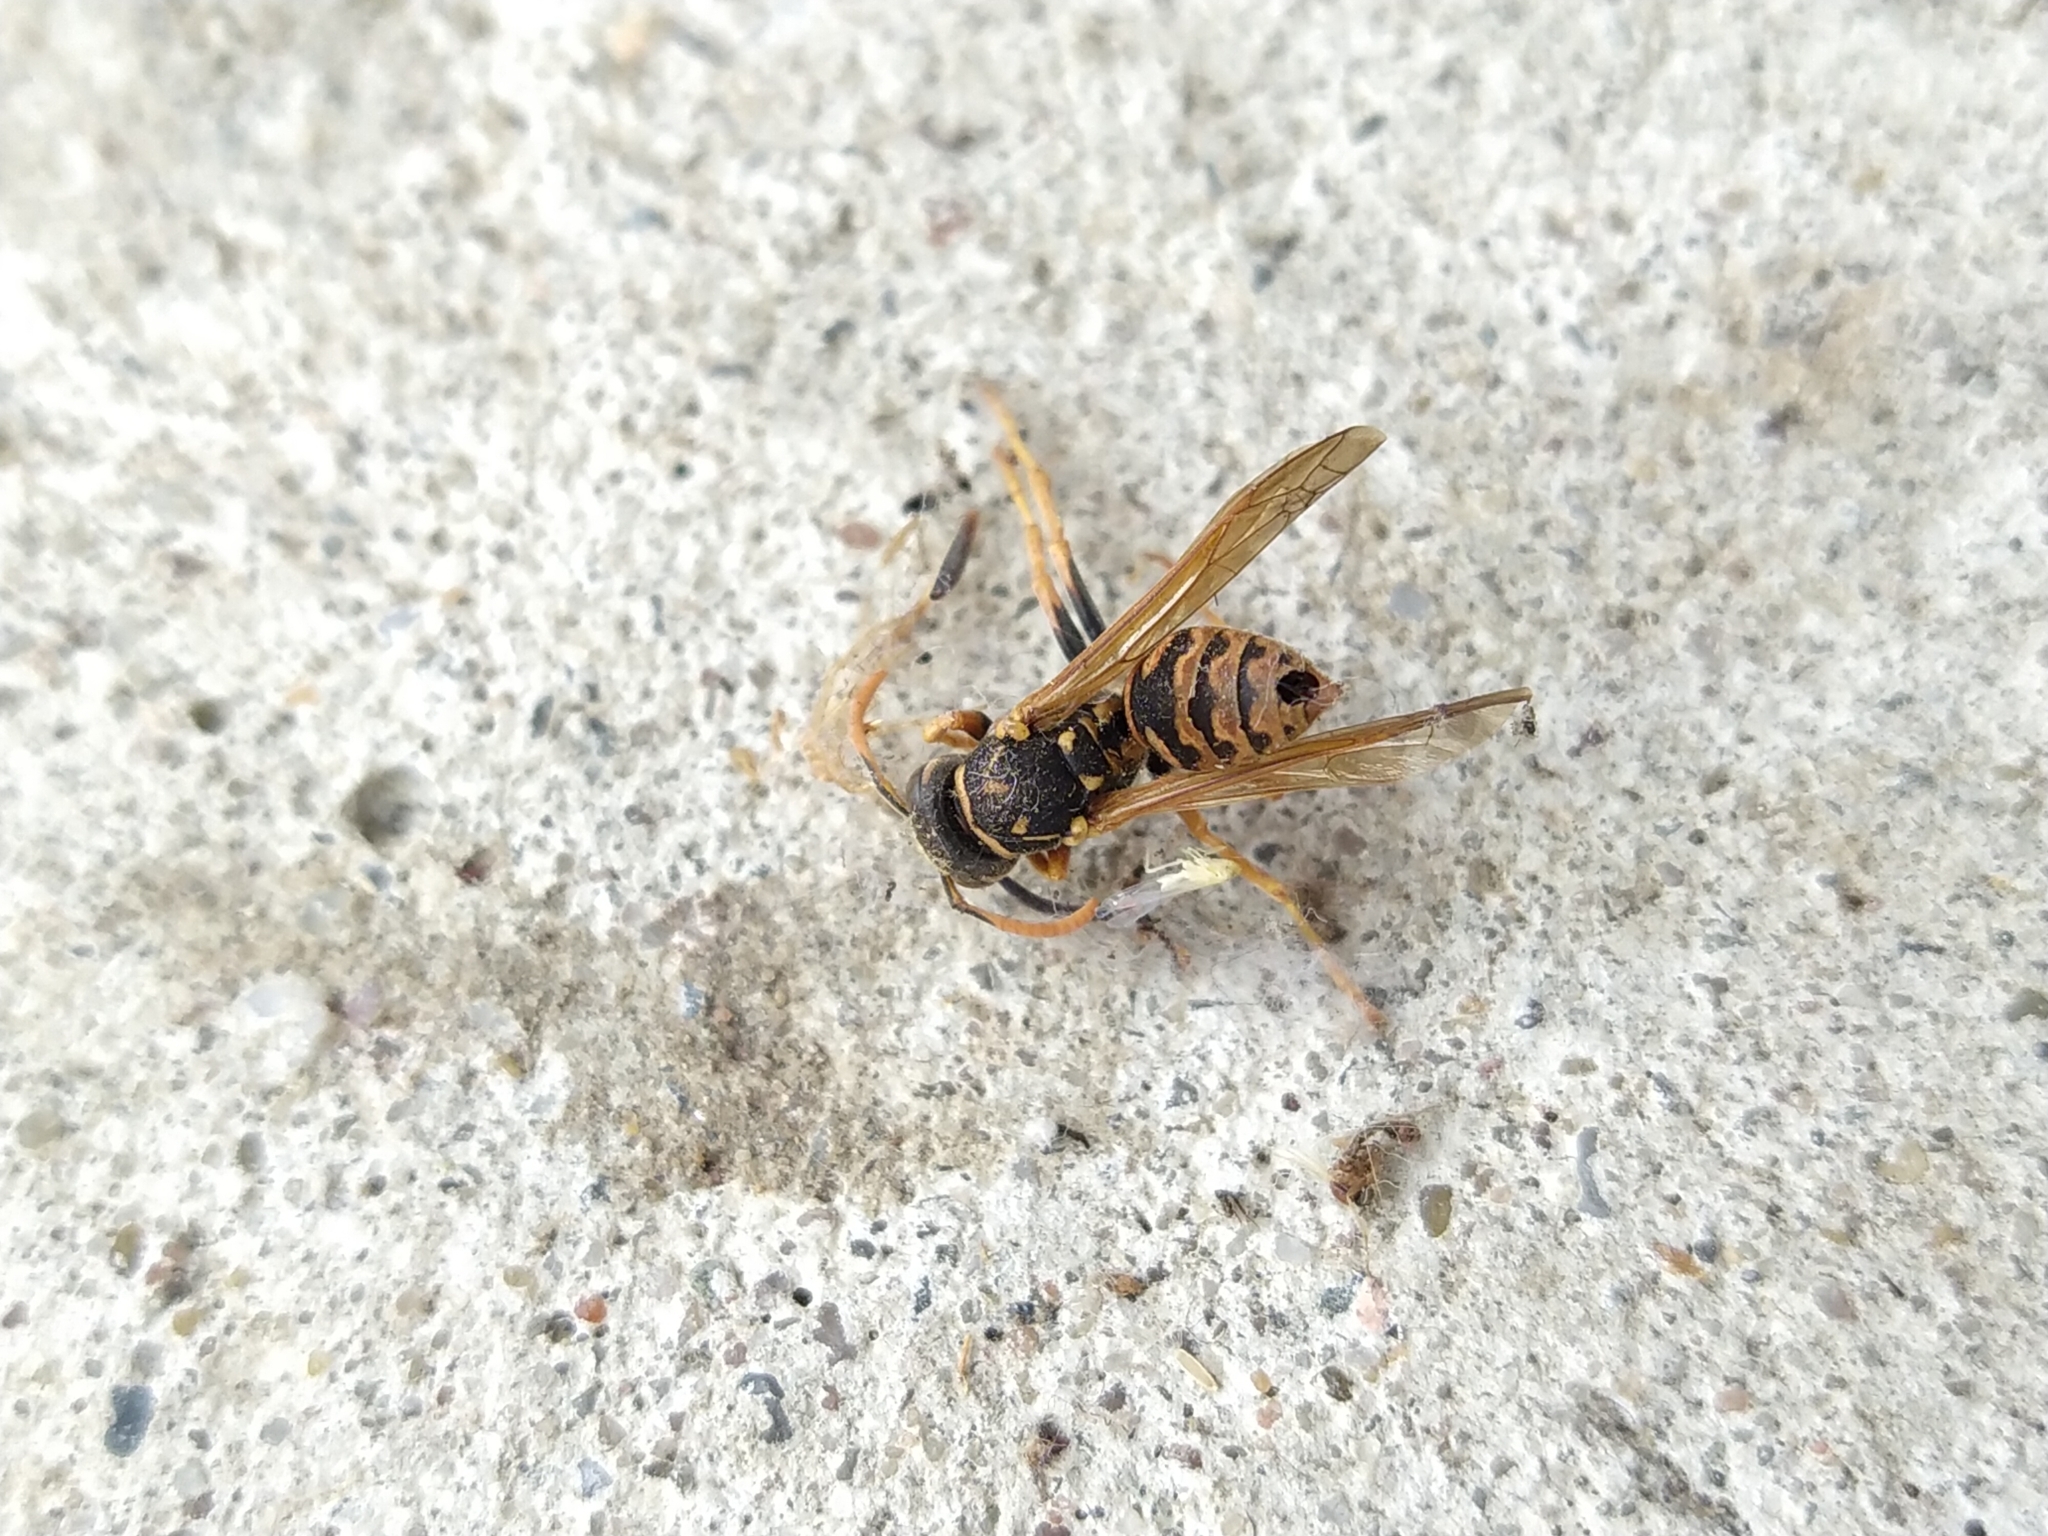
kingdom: Animalia
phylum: Arthropoda
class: Insecta
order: Hymenoptera
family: Eumenidae
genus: Polistes
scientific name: Polistes dominula
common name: Paper wasp
